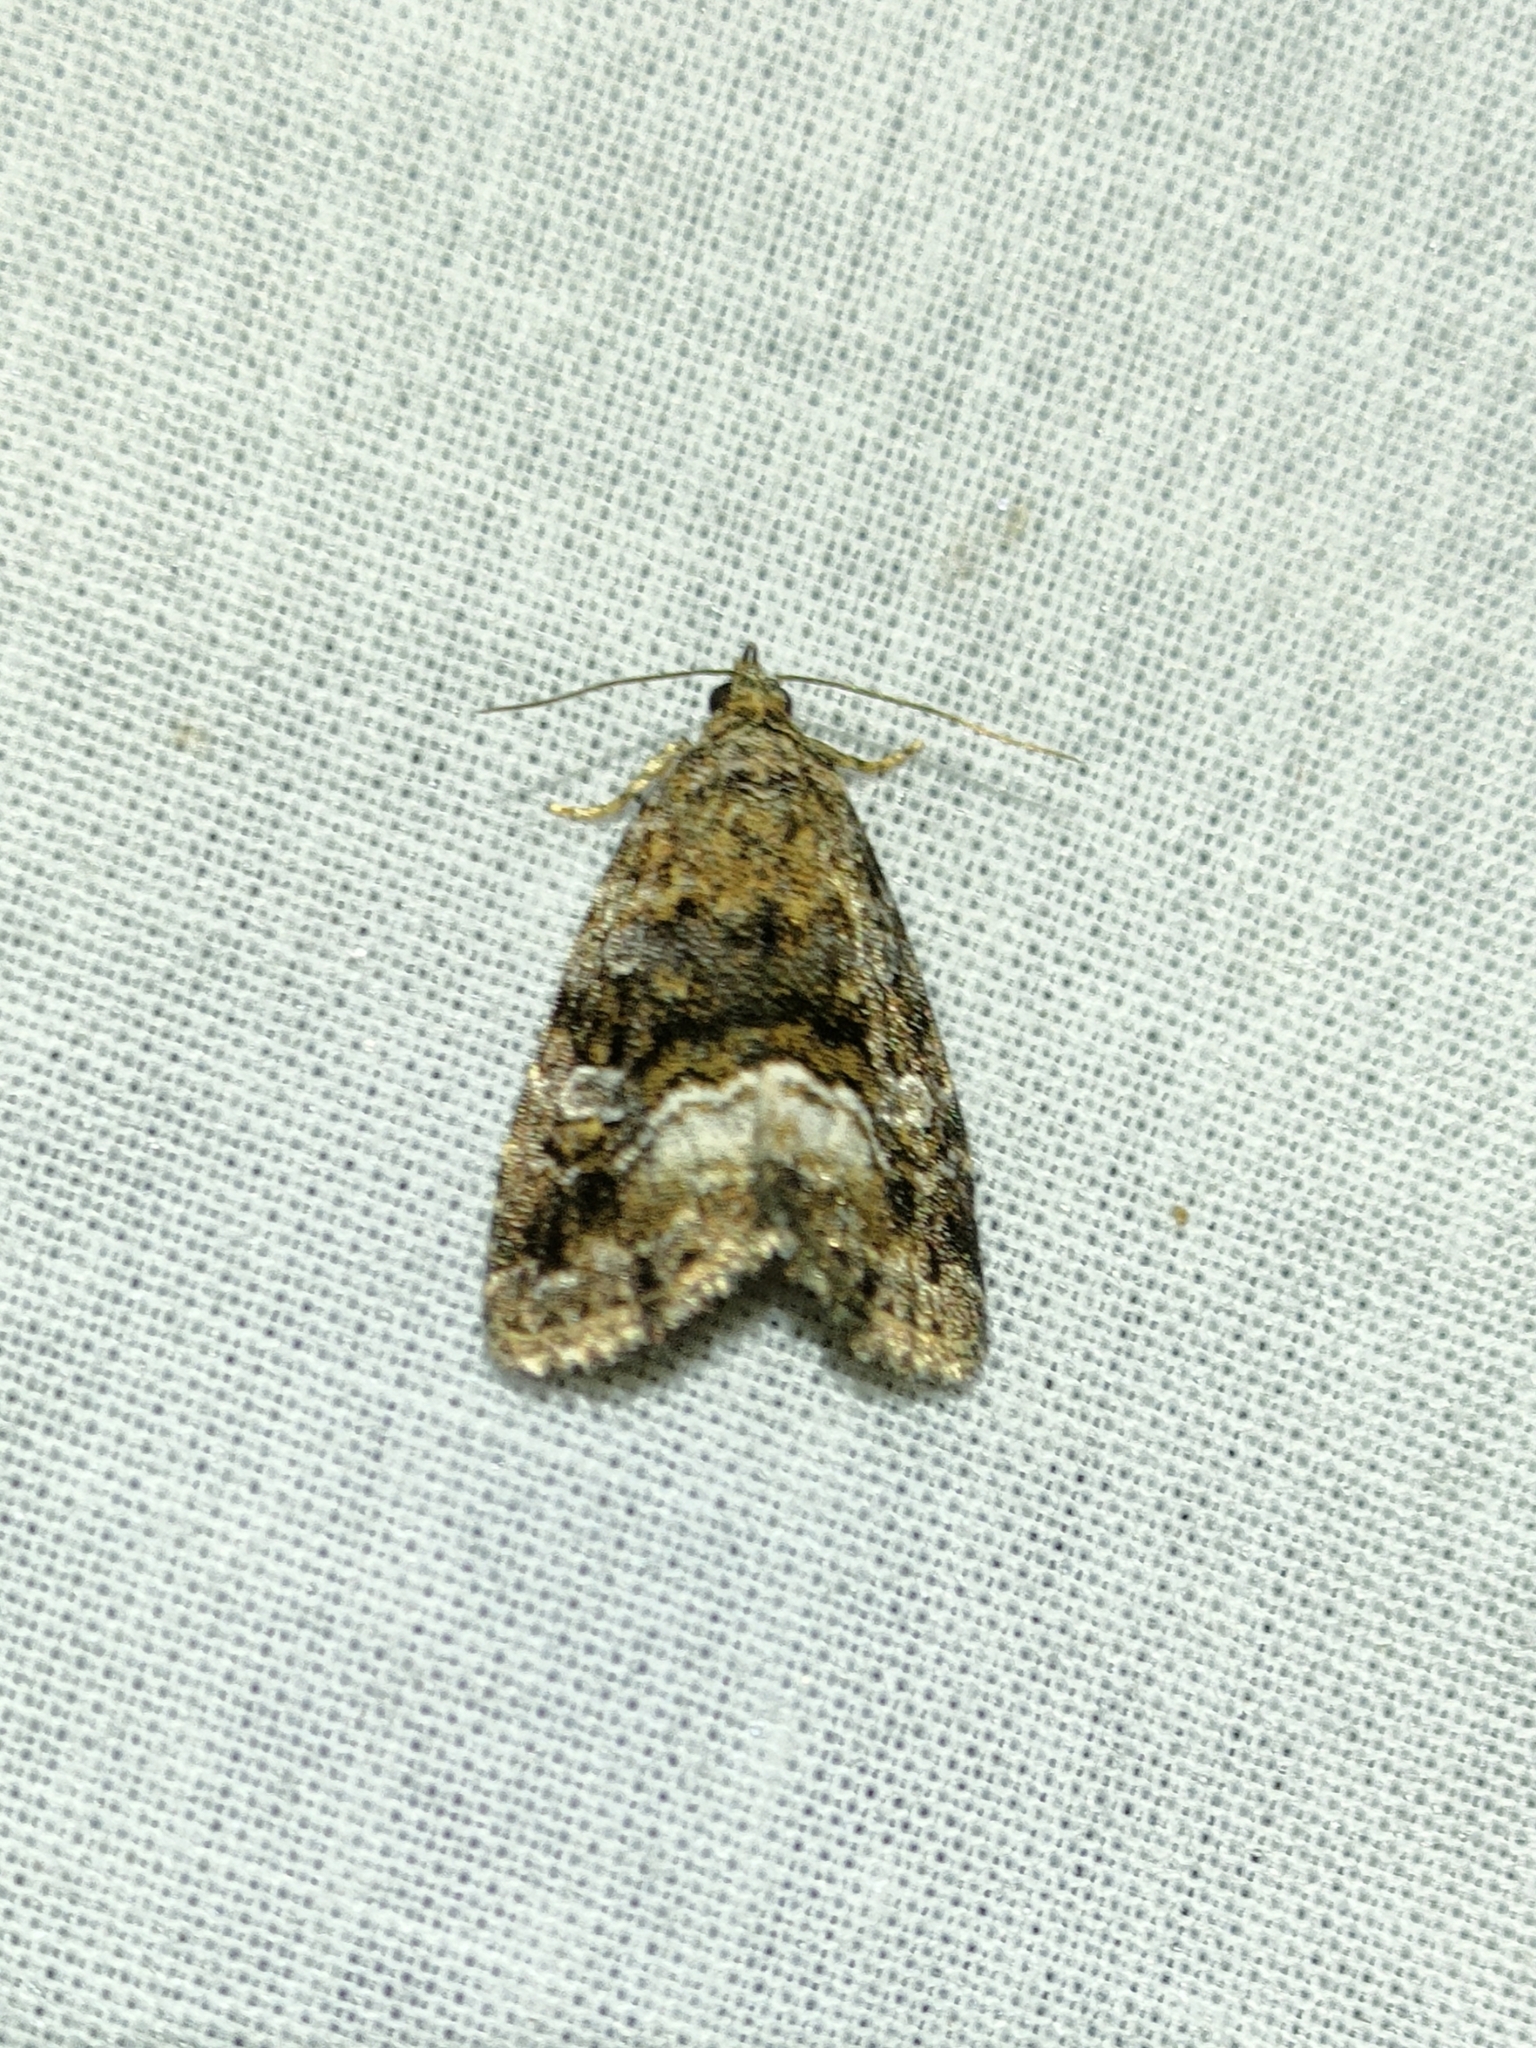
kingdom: Animalia
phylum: Arthropoda
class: Insecta
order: Lepidoptera
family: Noctuidae
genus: Deltote
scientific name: Deltote pygarga
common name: Marbled white spot
